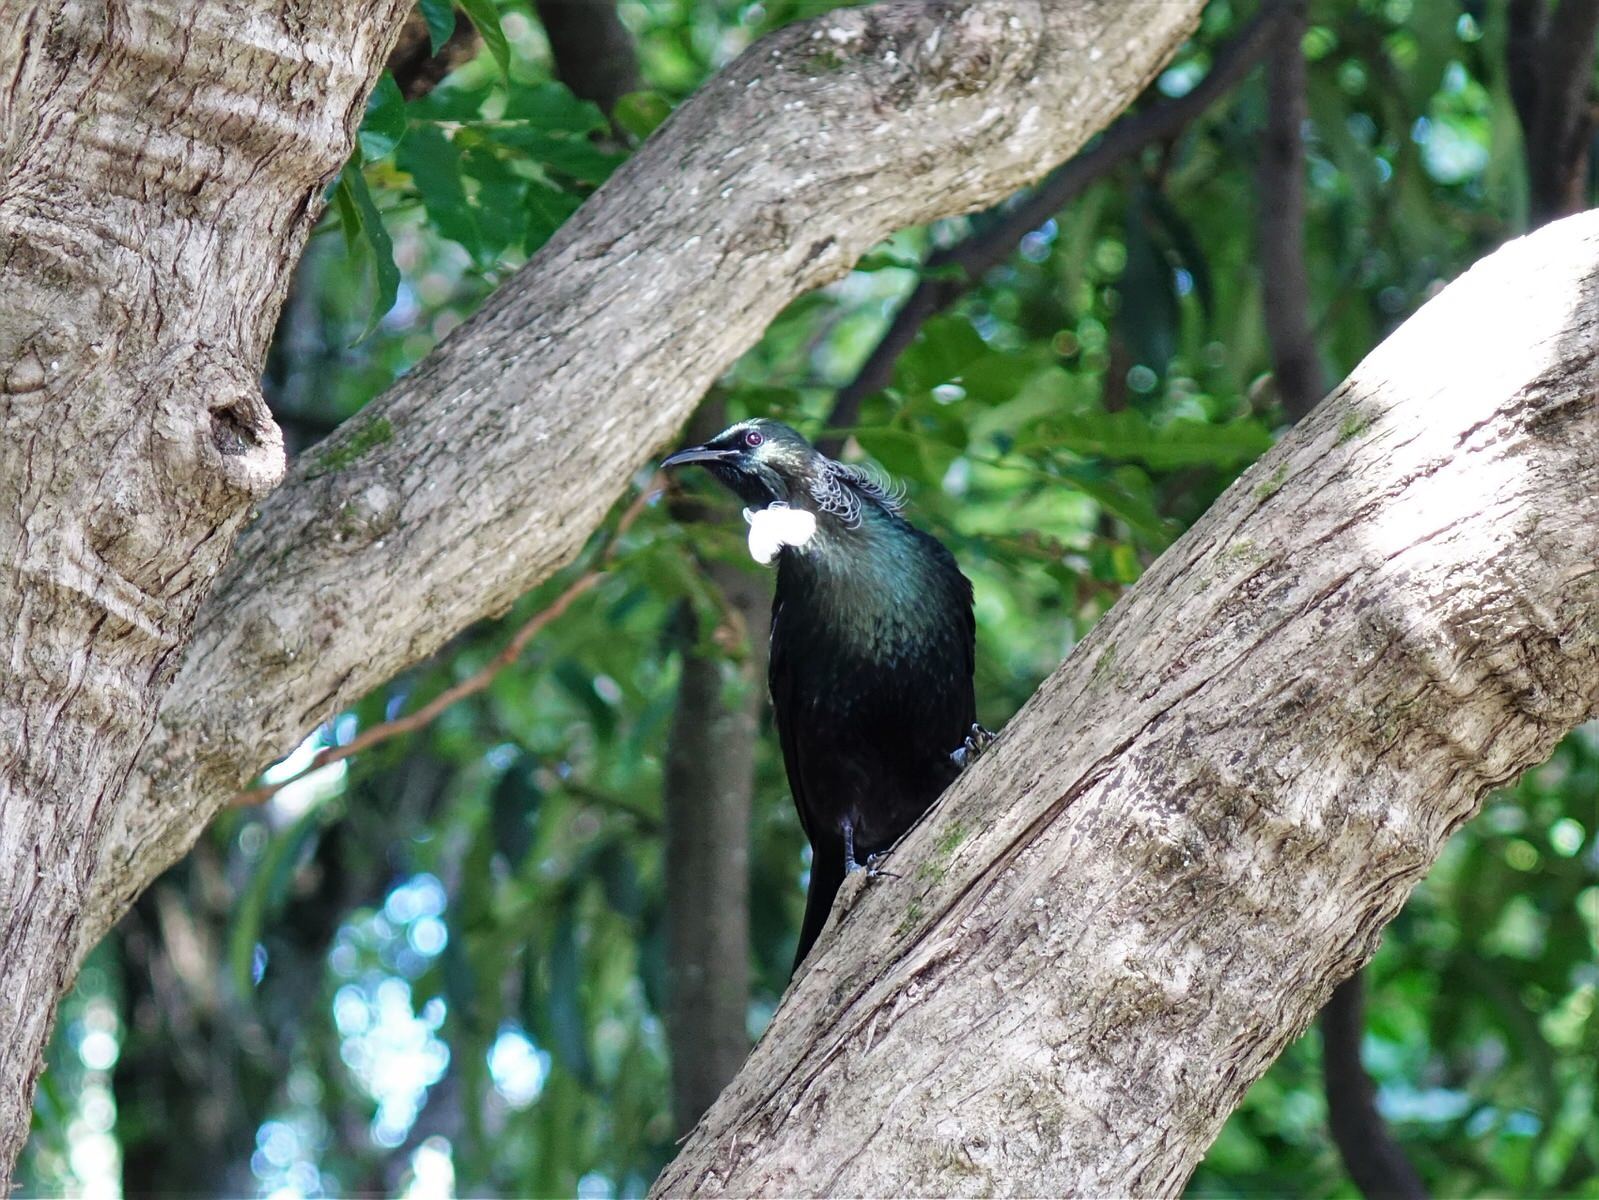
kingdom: Animalia
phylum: Chordata
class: Aves
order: Passeriformes
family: Meliphagidae
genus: Prosthemadera
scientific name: Prosthemadera novaeseelandiae
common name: Tui
